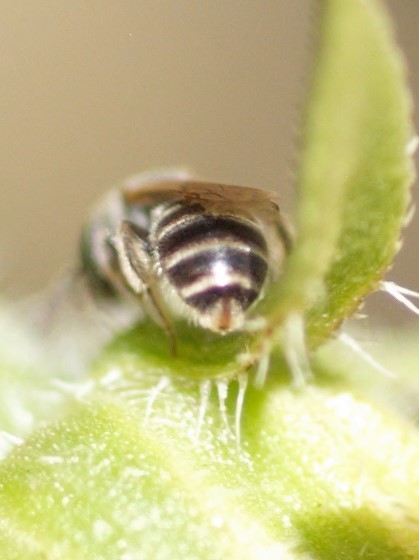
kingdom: Animalia
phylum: Arthropoda
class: Insecta
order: Hymenoptera
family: Halictidae
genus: Halictus
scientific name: Halictus tripartitus
